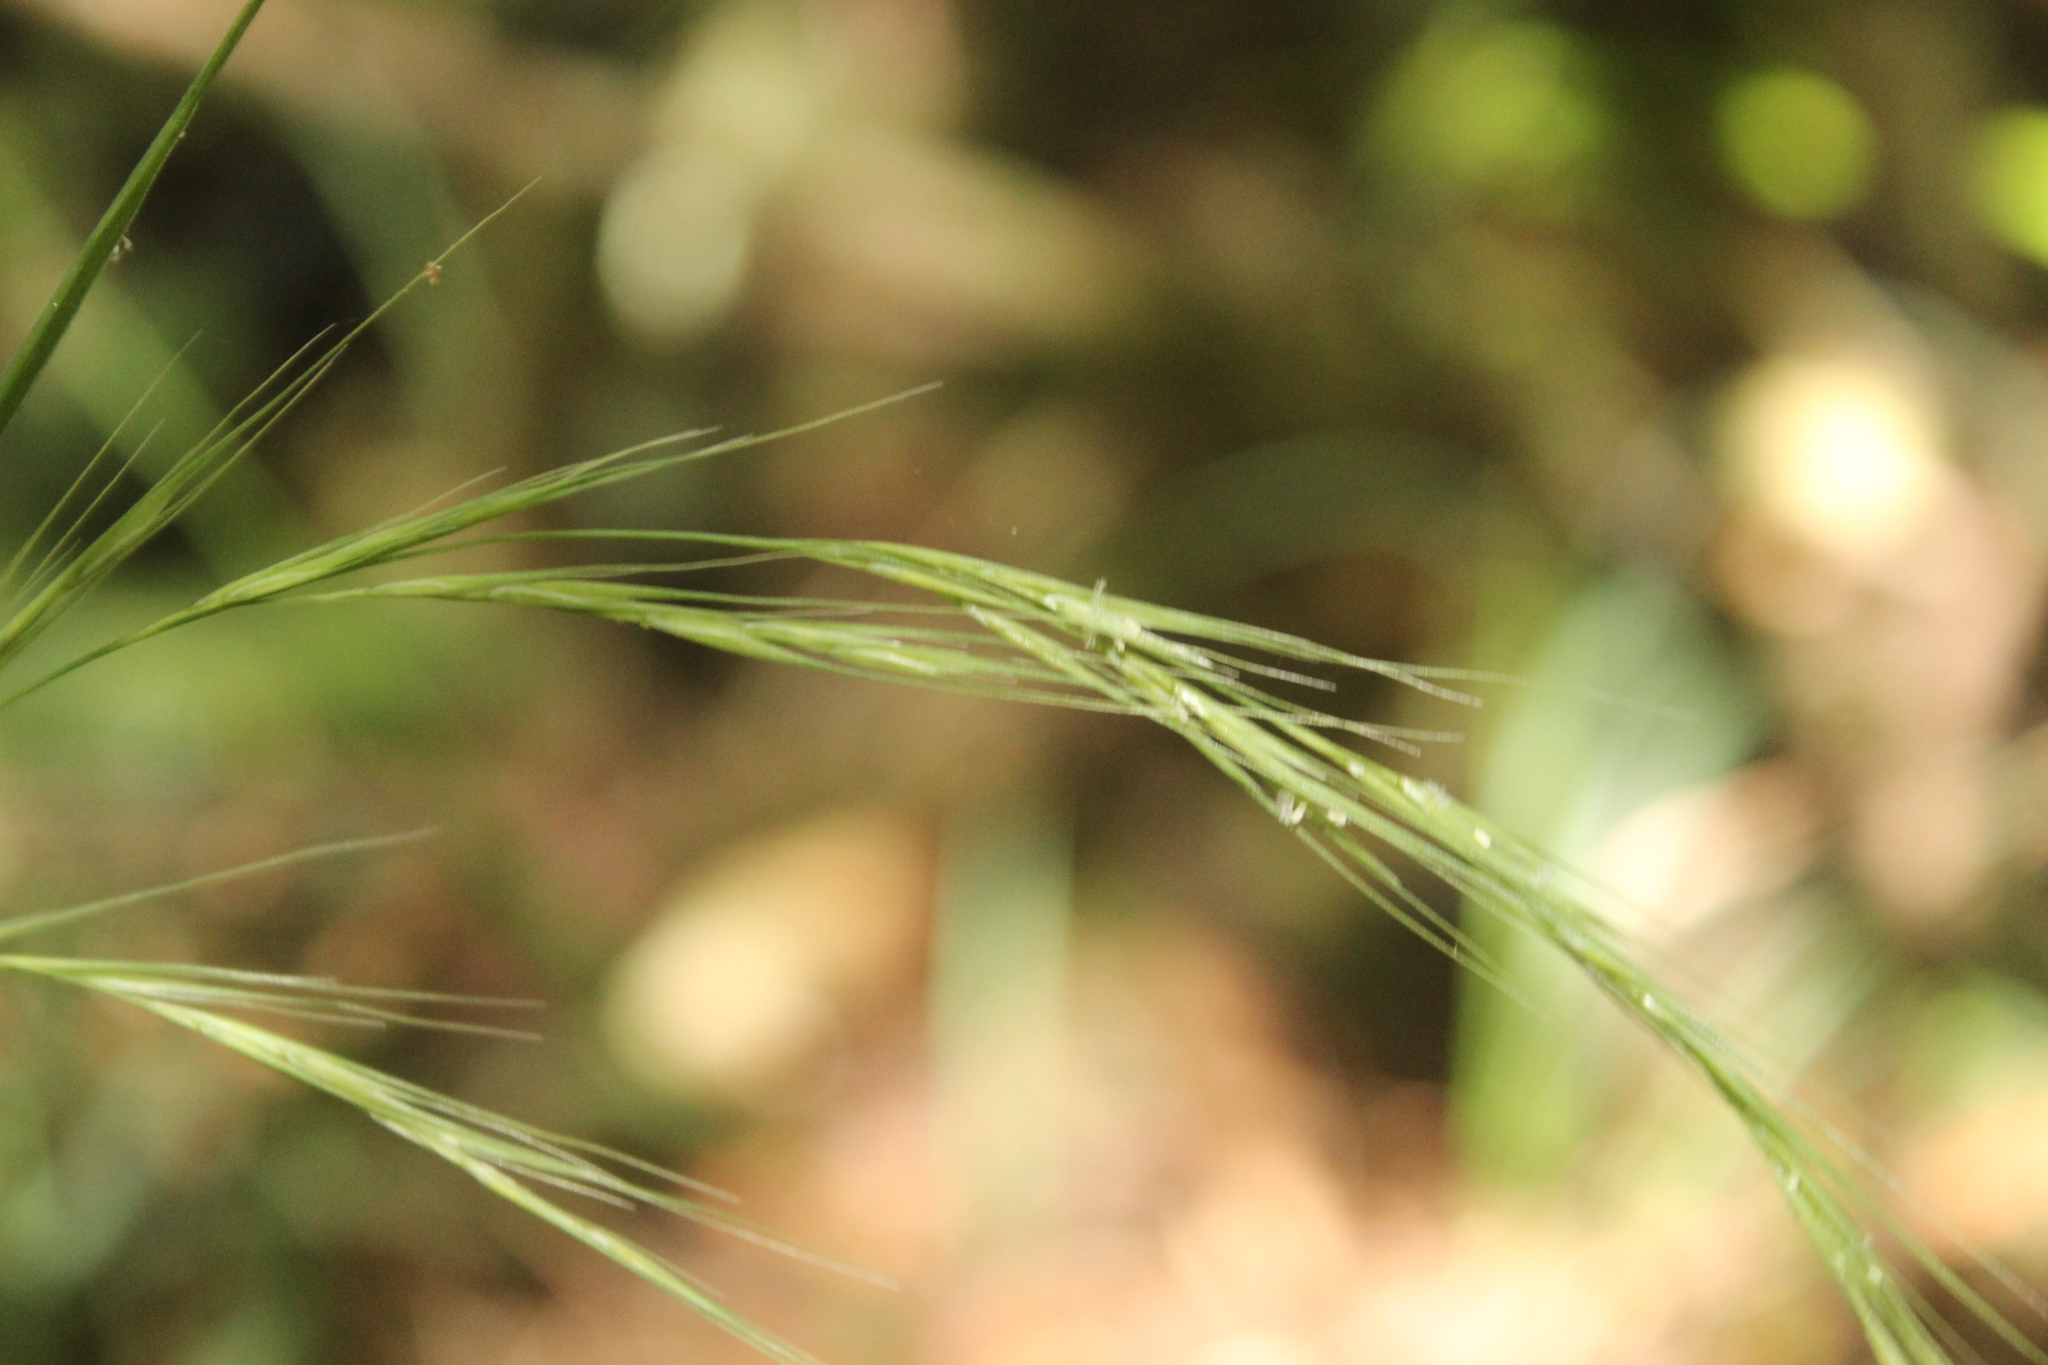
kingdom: Plantae
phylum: Tracheophyta
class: Liliopsida
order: Poales
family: Poaceae
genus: Ehrharta
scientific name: Ehrharta diplax
